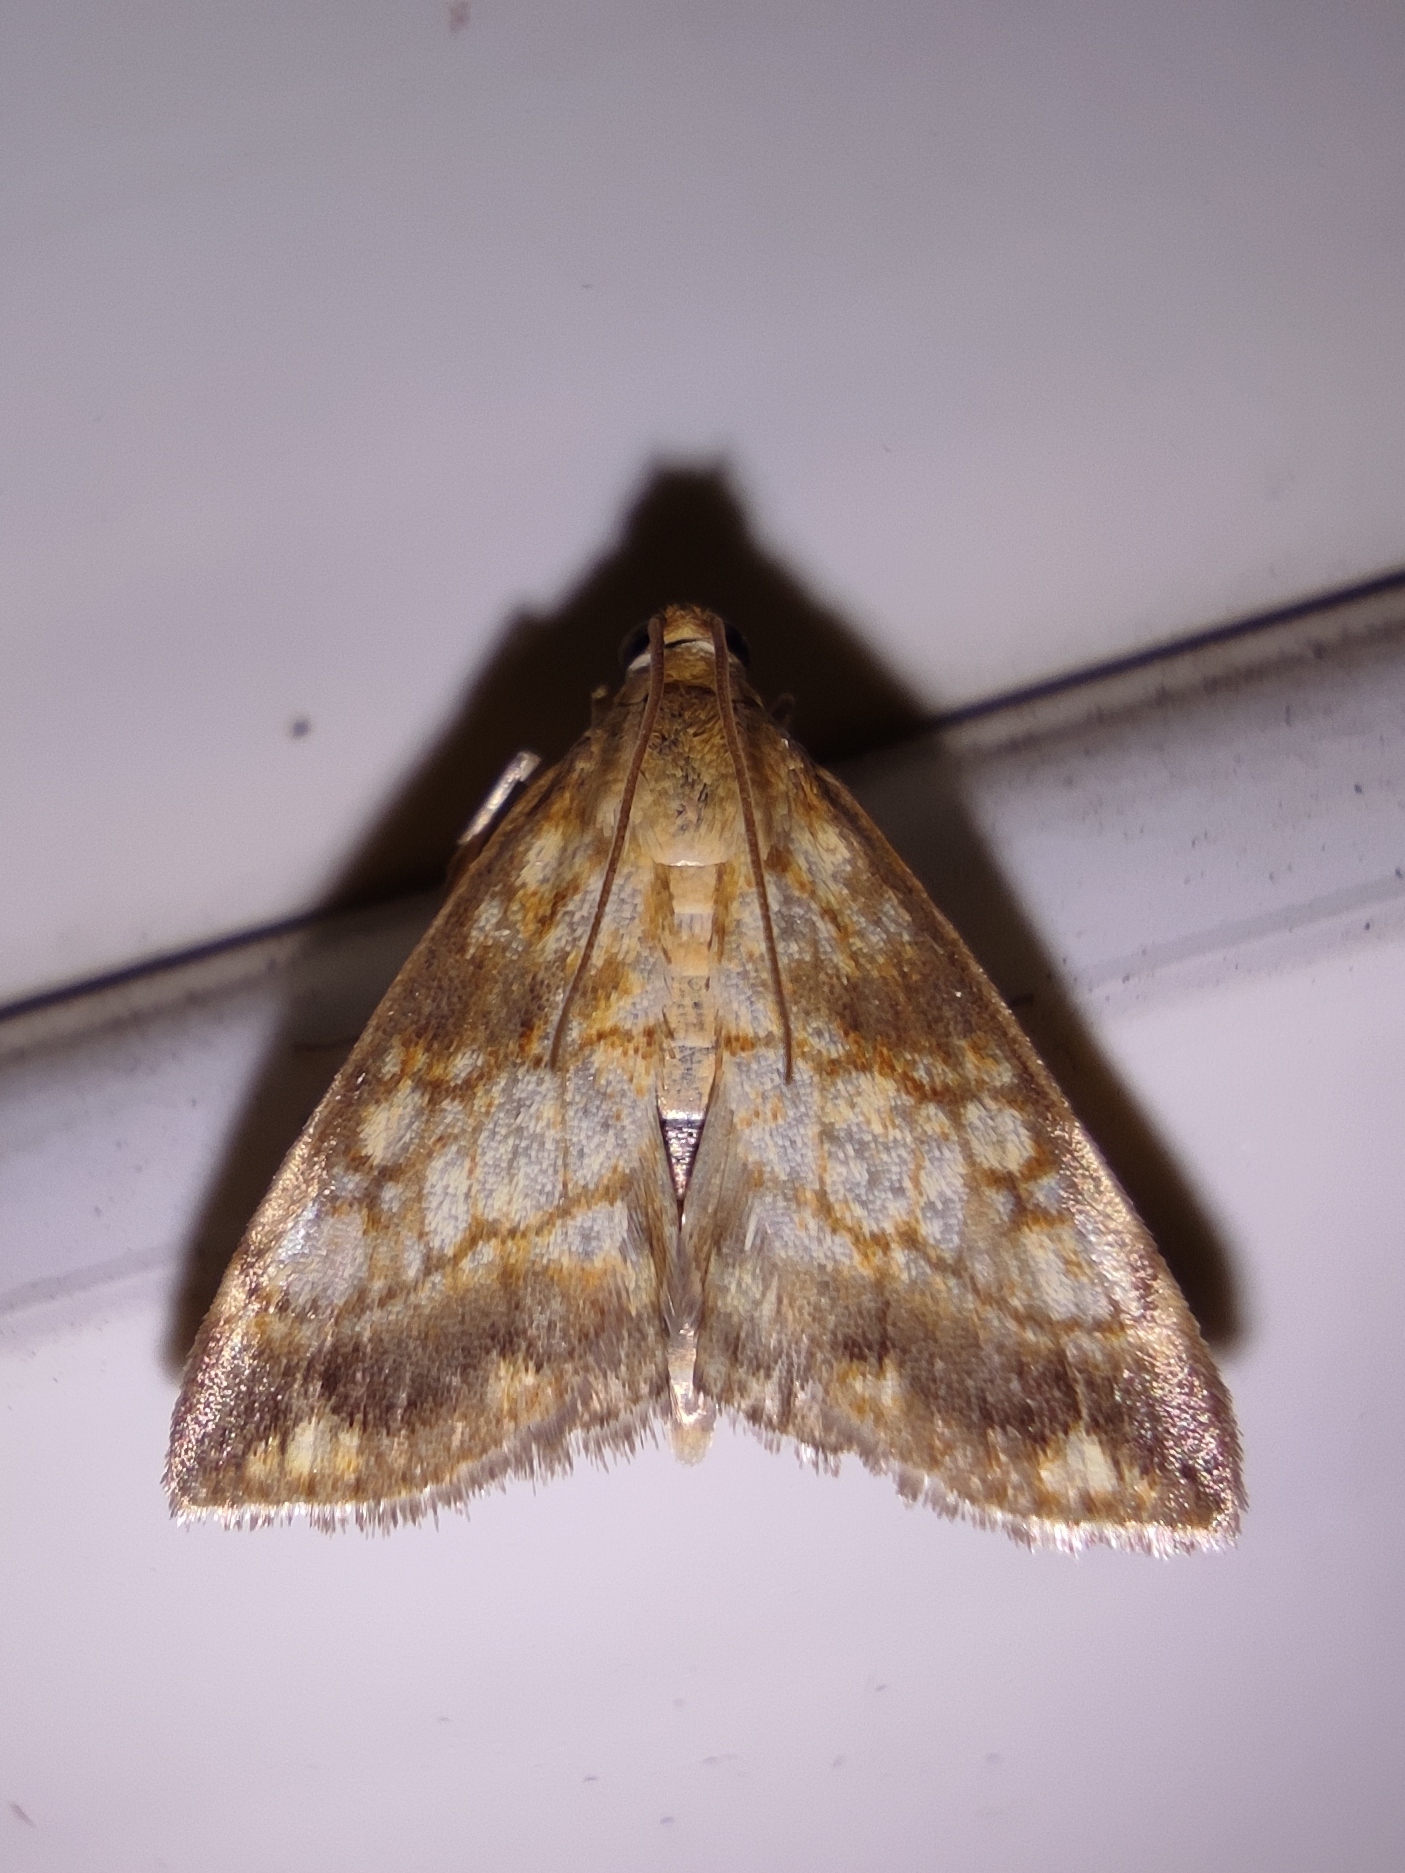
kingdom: Animalia
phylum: Arthropoda
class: Insecta
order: Lepidoptera
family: Crambidae
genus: Evergestis
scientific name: Evergestis politalis
